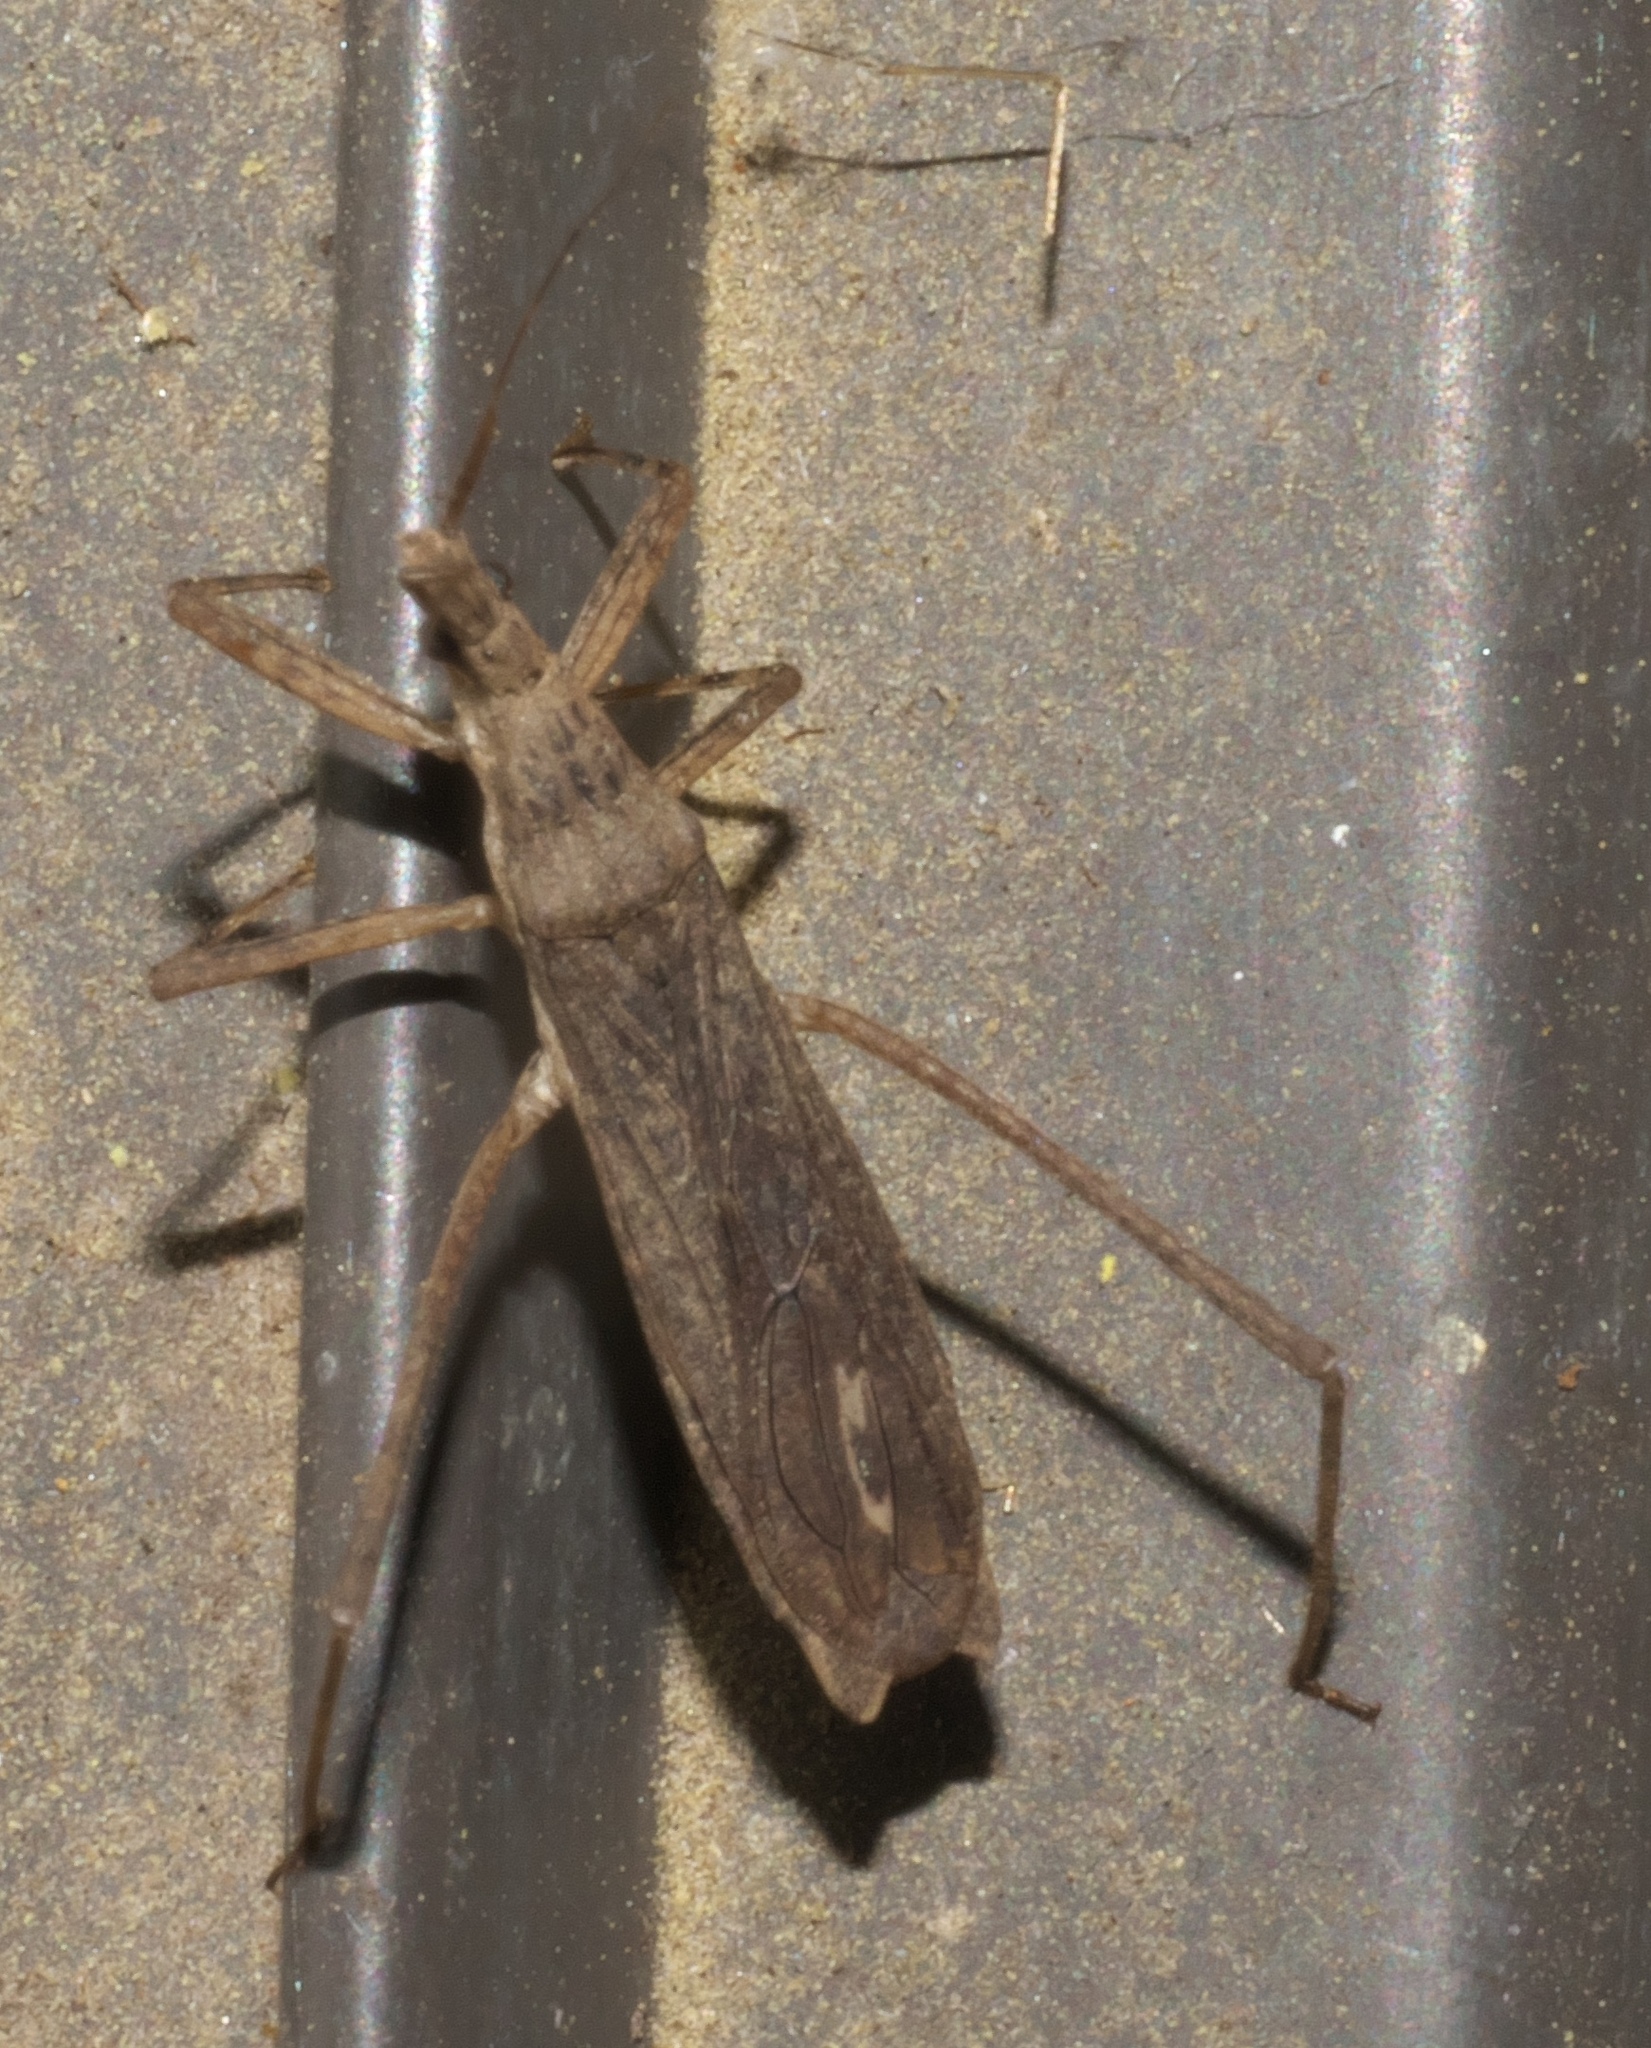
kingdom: Animalia
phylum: Arthropoda
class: Insecta
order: Hemiptera
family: Reduviidae
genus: Pygolampis
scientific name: Pygolampis pectoralis
